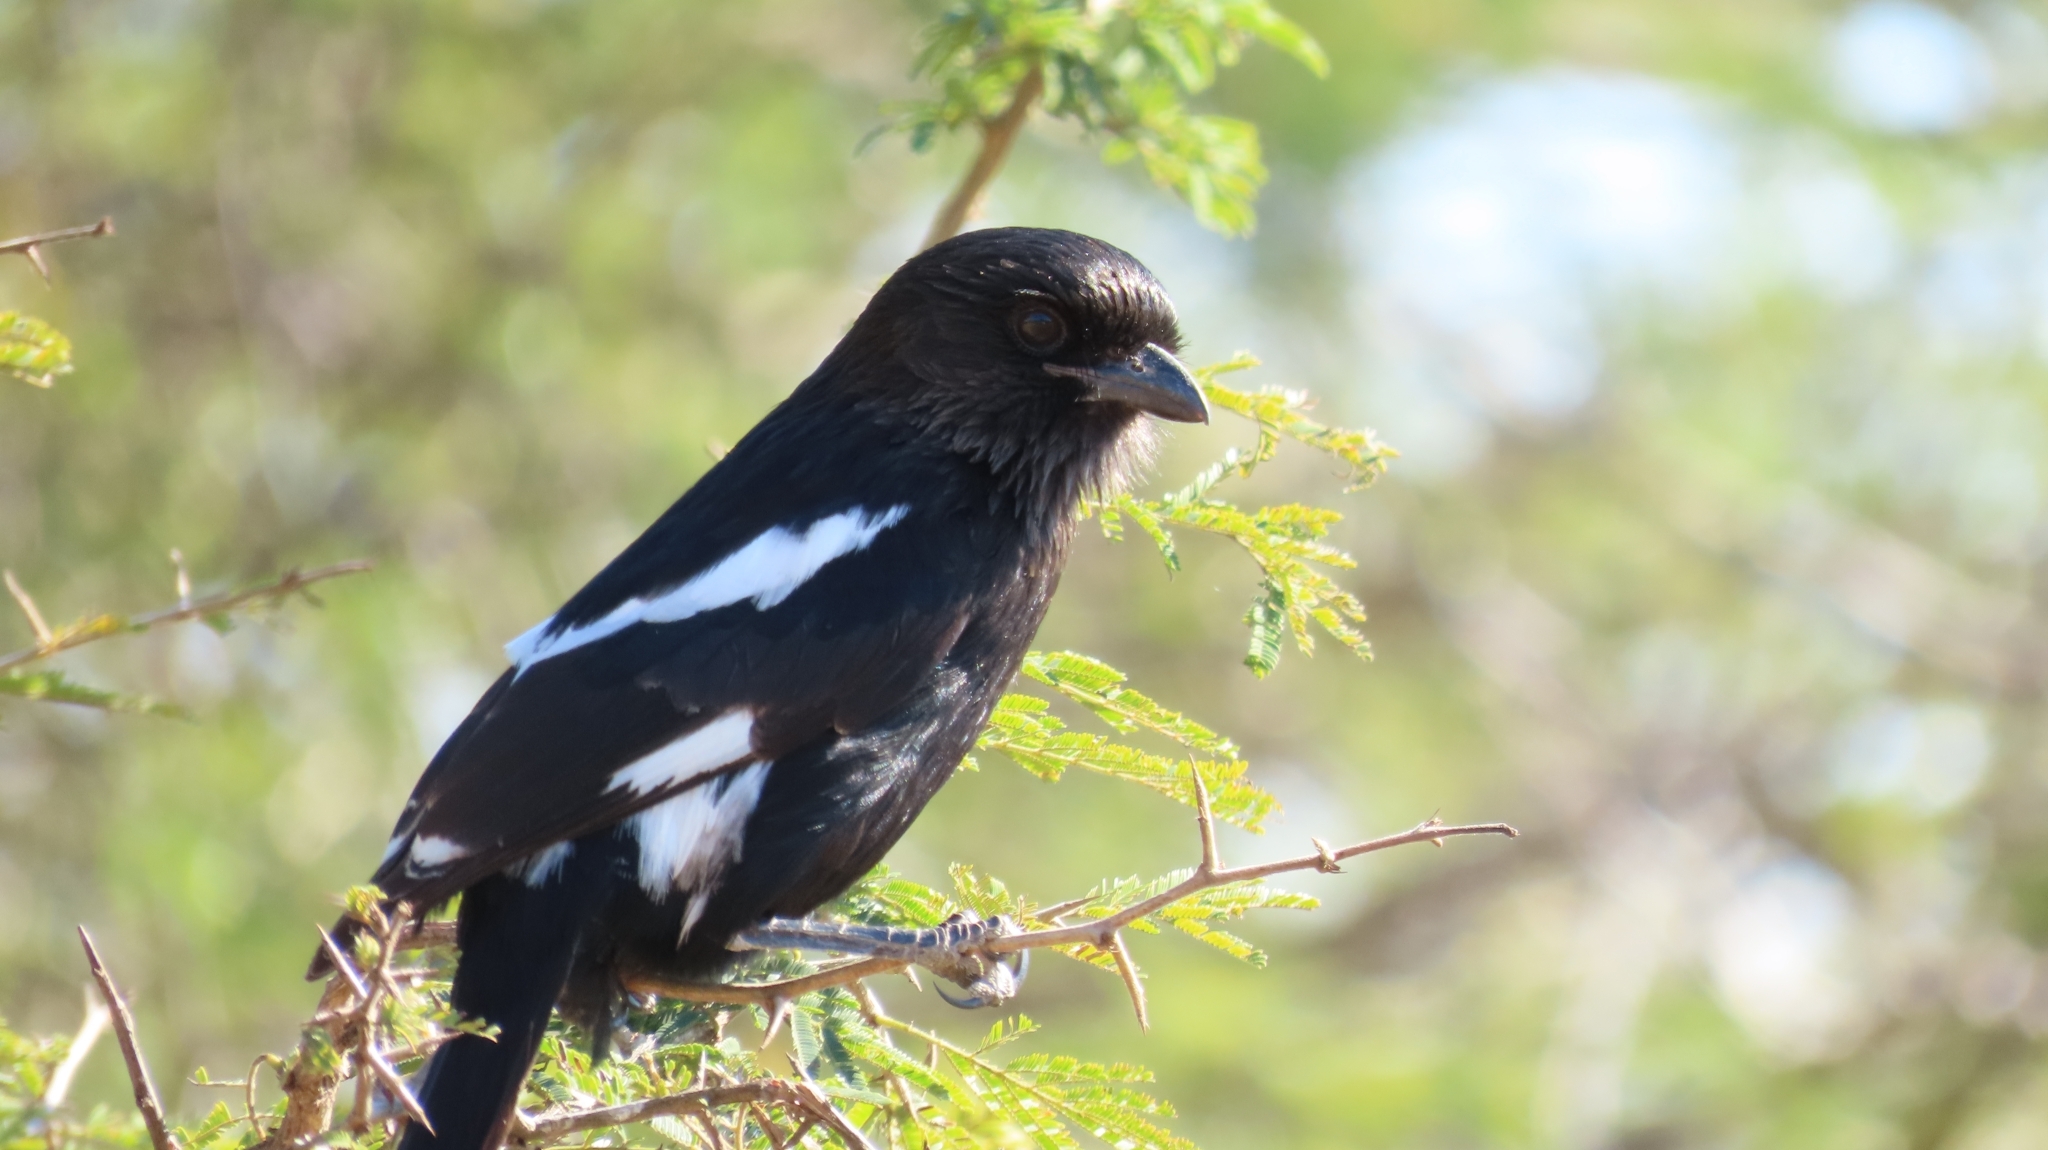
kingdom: Animalia
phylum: Chordata
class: Aves
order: Passeriformes
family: Laniidae
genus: Urolestes
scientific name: Urolestes melanoleucus
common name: Magpie shrike
